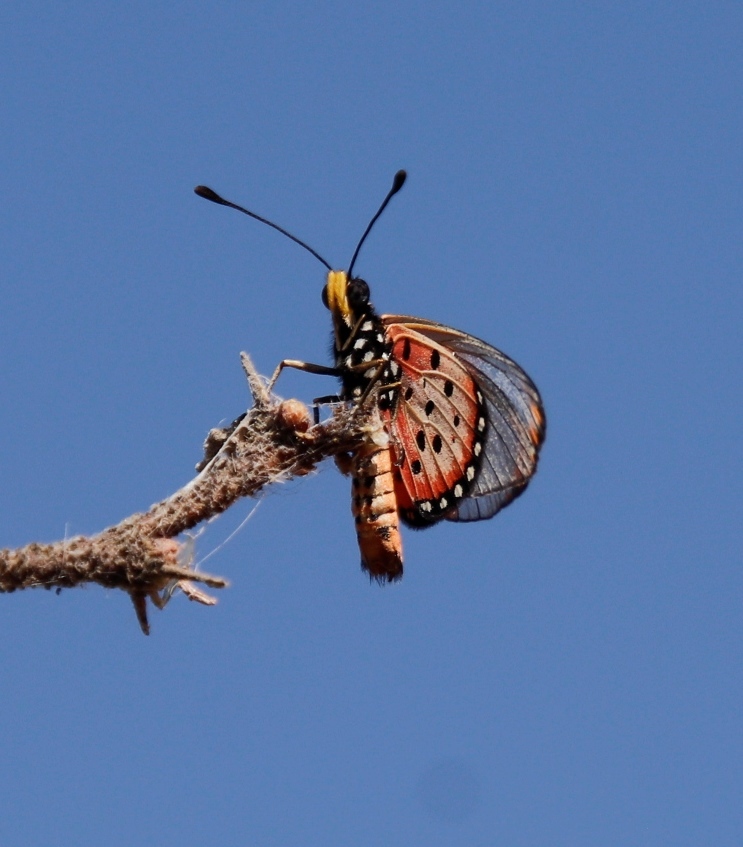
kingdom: Animalia
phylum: Arthropoda
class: Insecta
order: Lepidoptera
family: Nymphalidae
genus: Acraea
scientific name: Acraea neobule
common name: Dancing acraea
